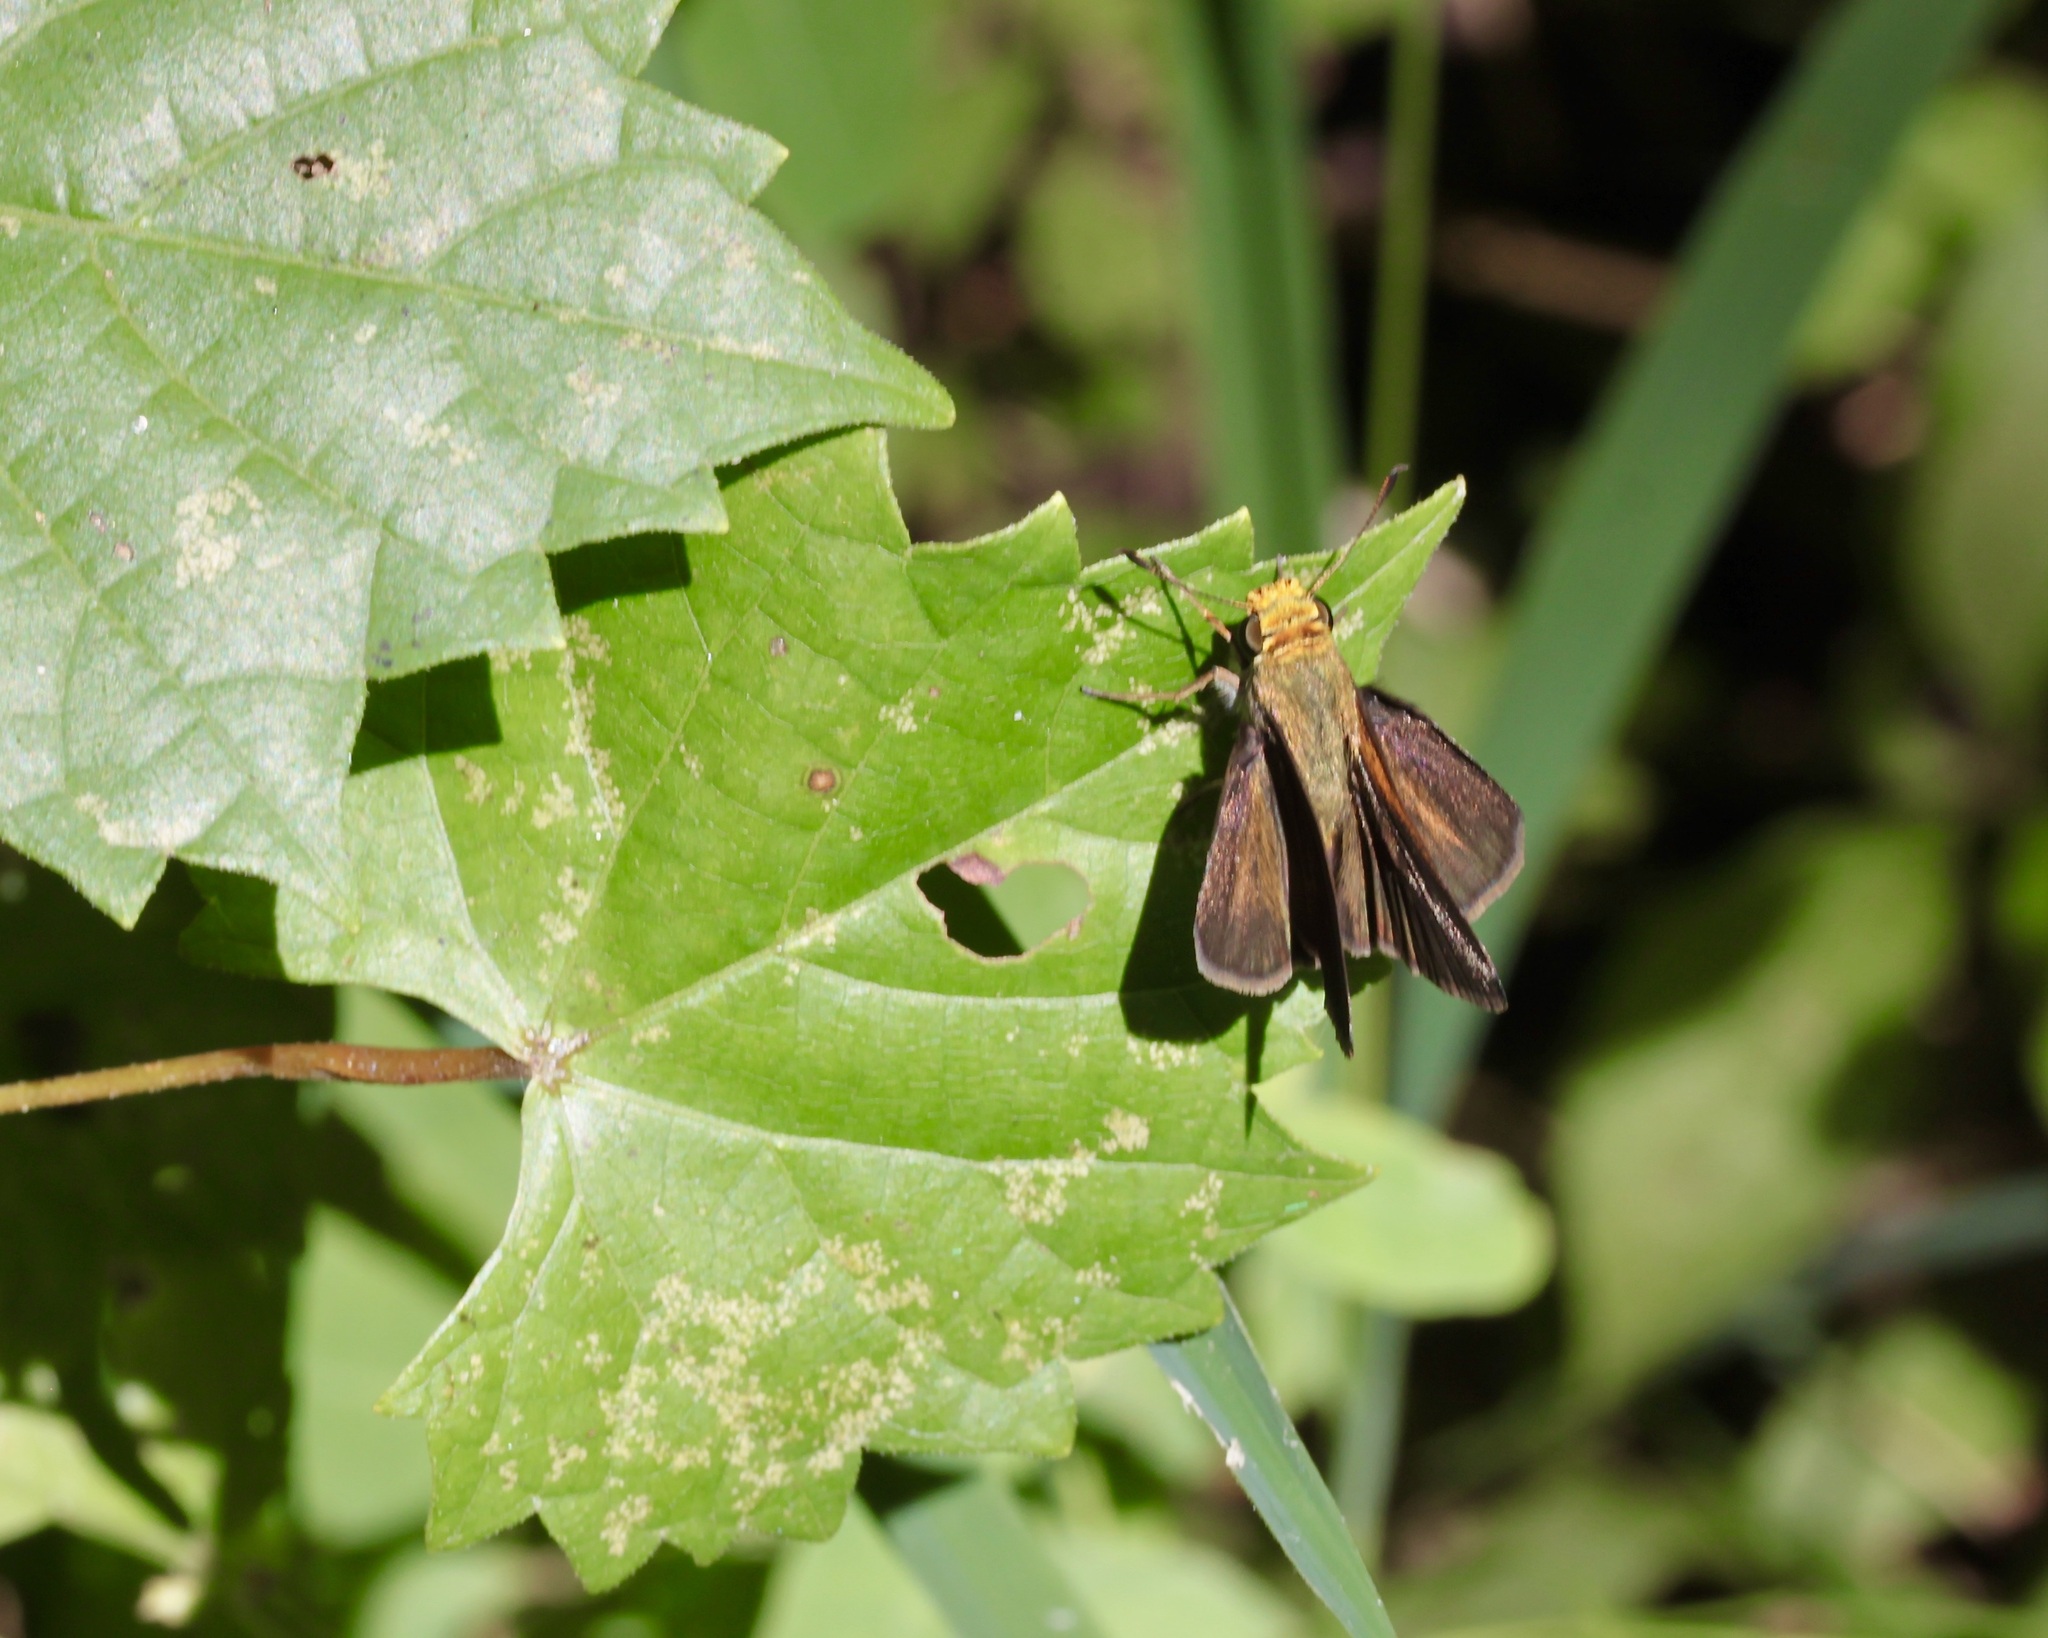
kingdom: Animalia
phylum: Arthropoda
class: Insecta
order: Lepidoptera
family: Hesperiidae
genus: Euphyes
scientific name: Euphyes vestris
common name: Dun skipper
